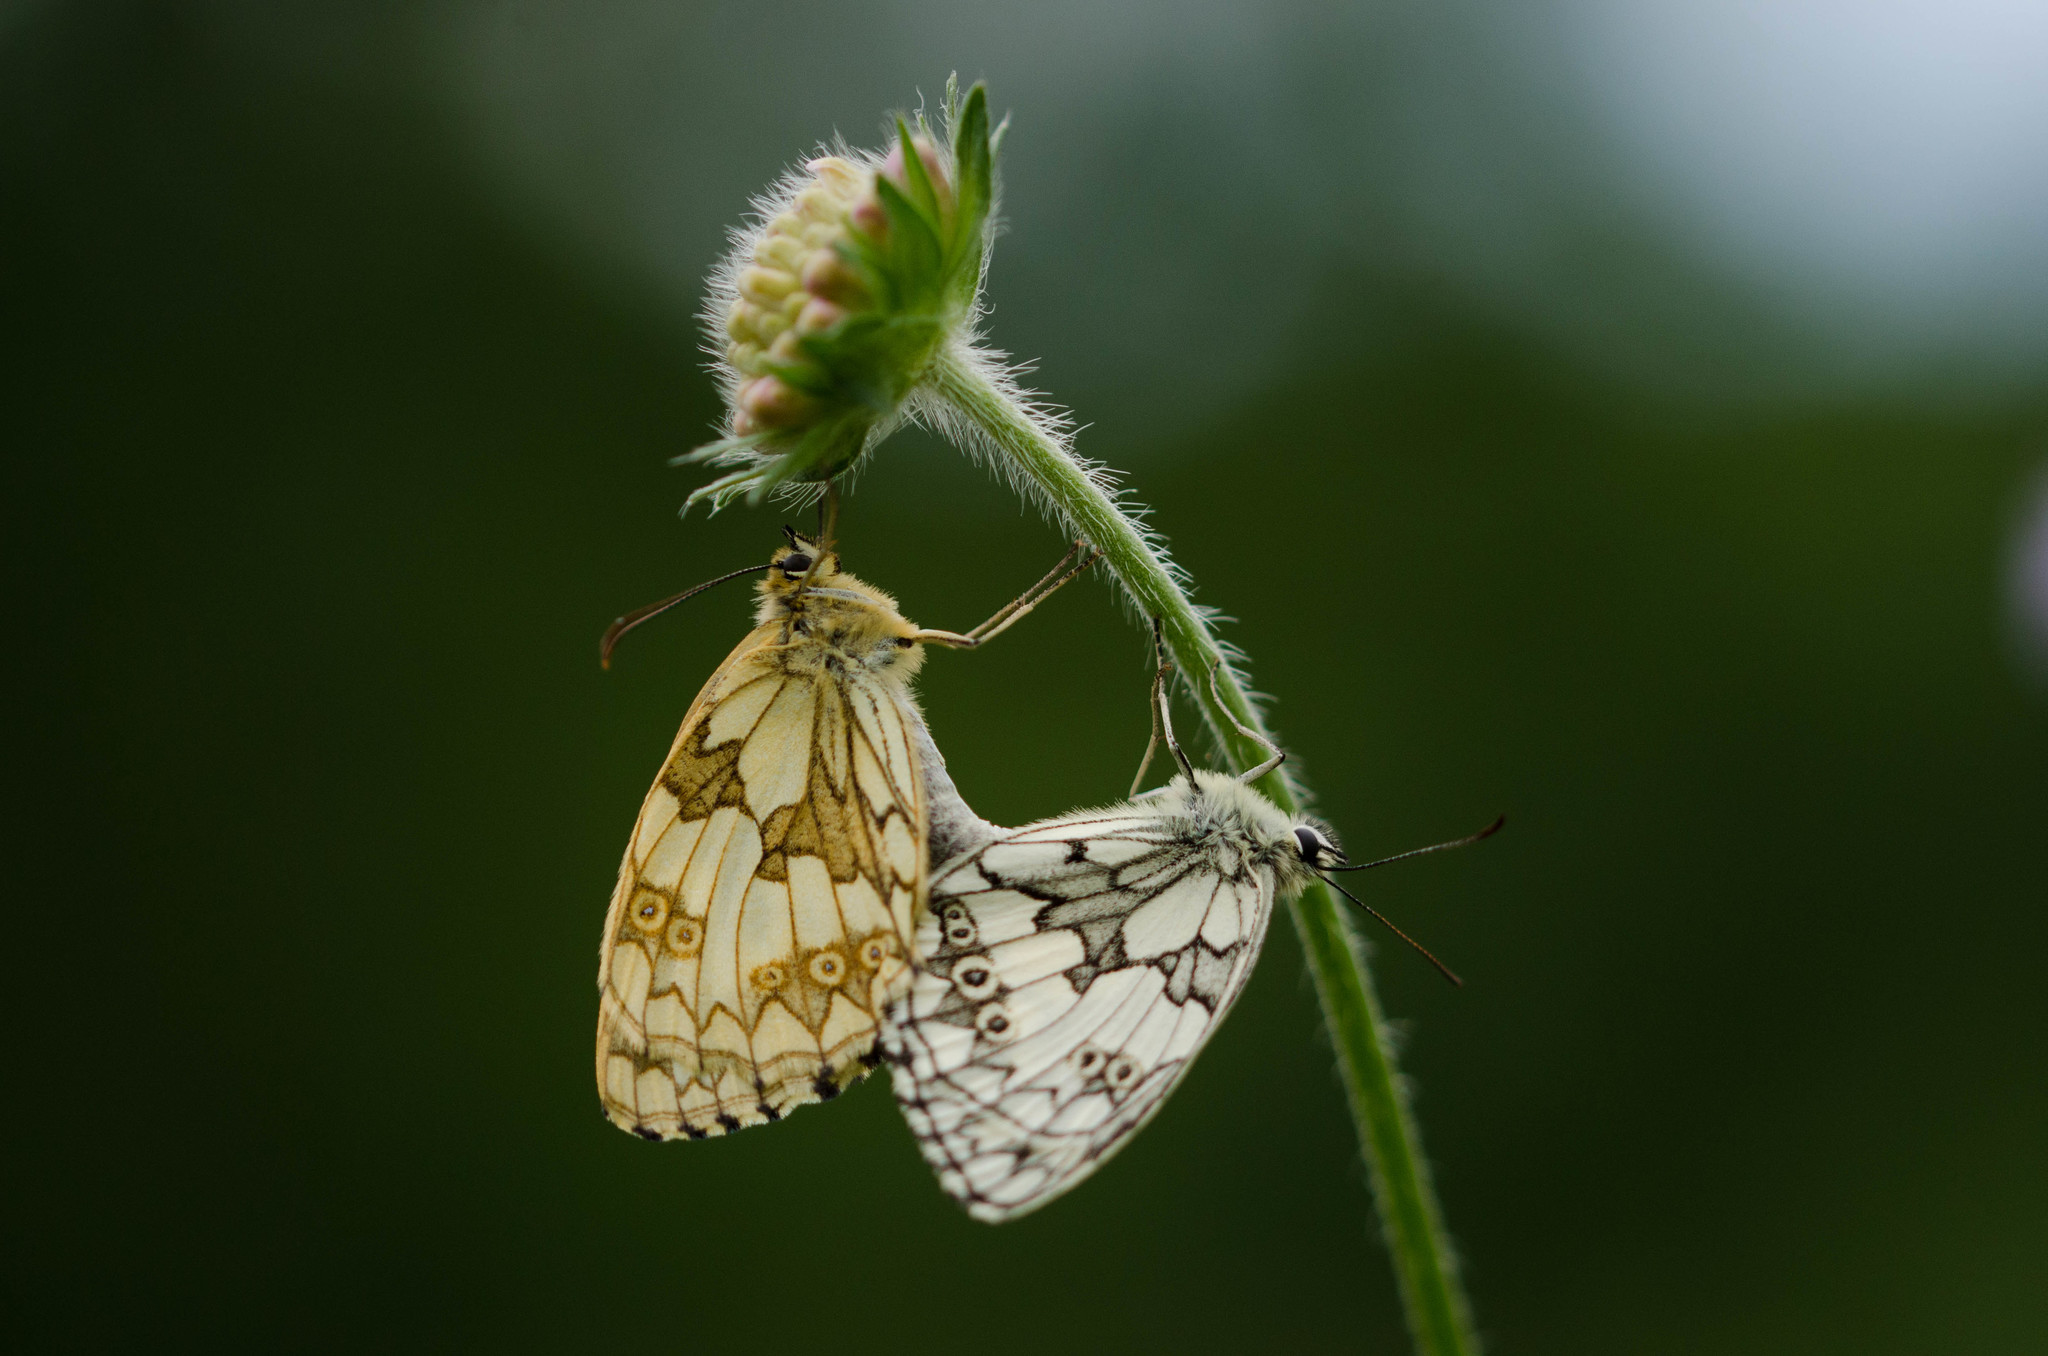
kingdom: Animalia
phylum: Arthropoda
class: Insecta
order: Lepidoptera
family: Nymphalidae
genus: Melanargia
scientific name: Melanargia galathea
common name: Marbled white
